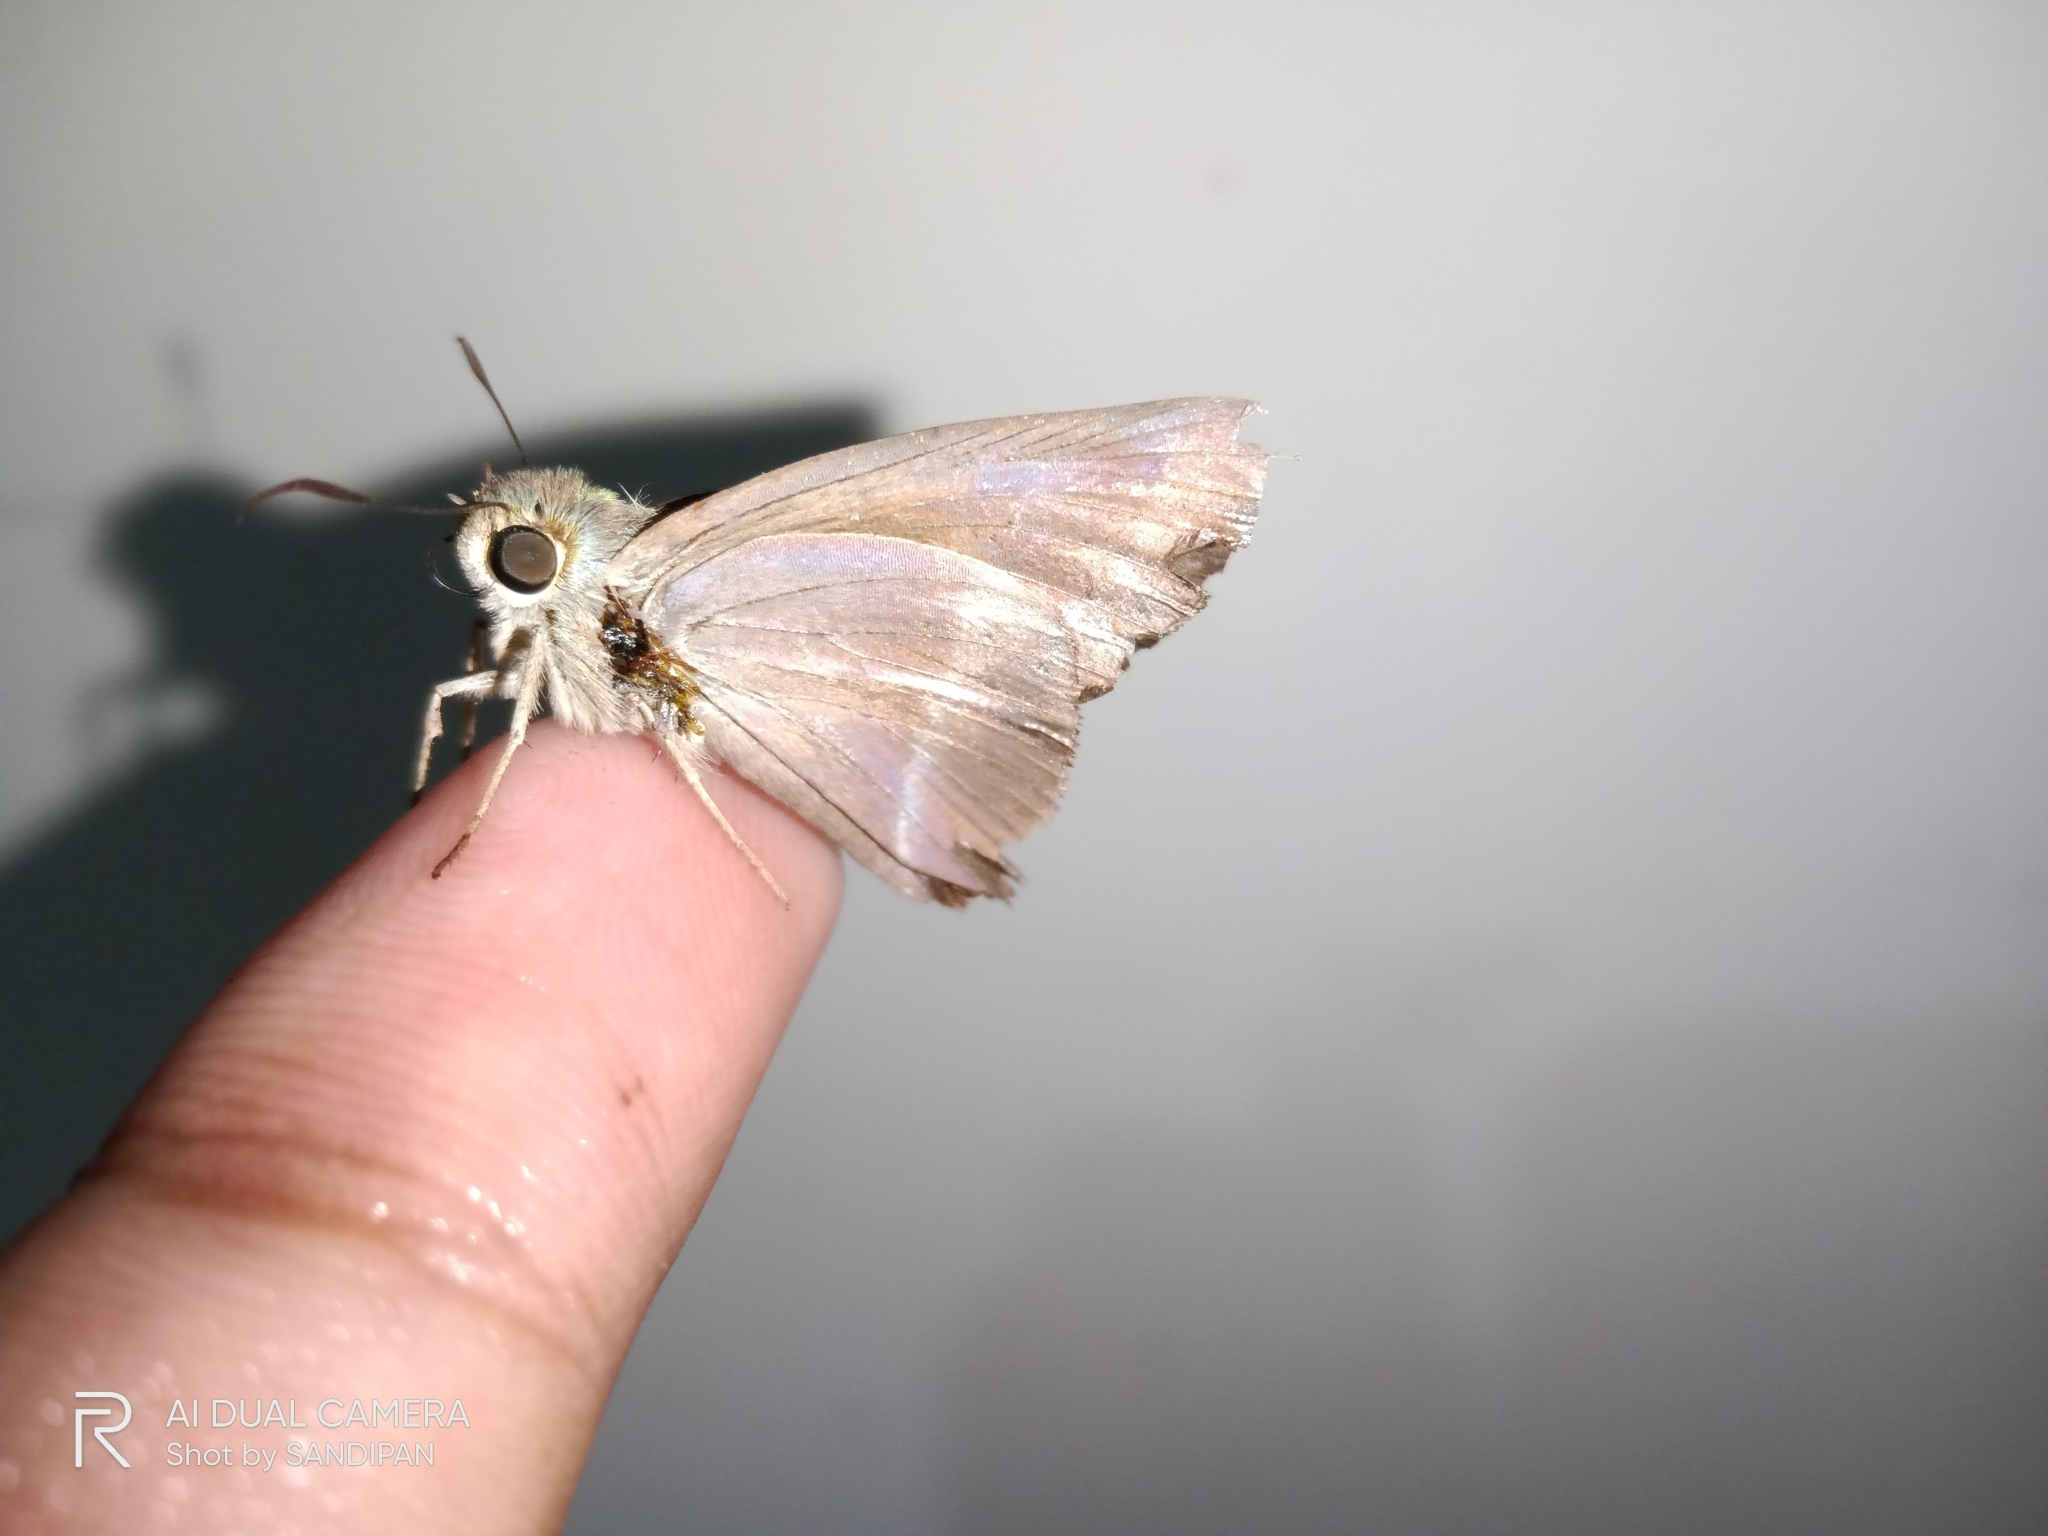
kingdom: Animalia
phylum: Arthropoda
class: Insecta
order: Lepidoptera
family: Hesperiidae
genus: Hasora
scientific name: Hasora chromus
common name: Common banded awl
